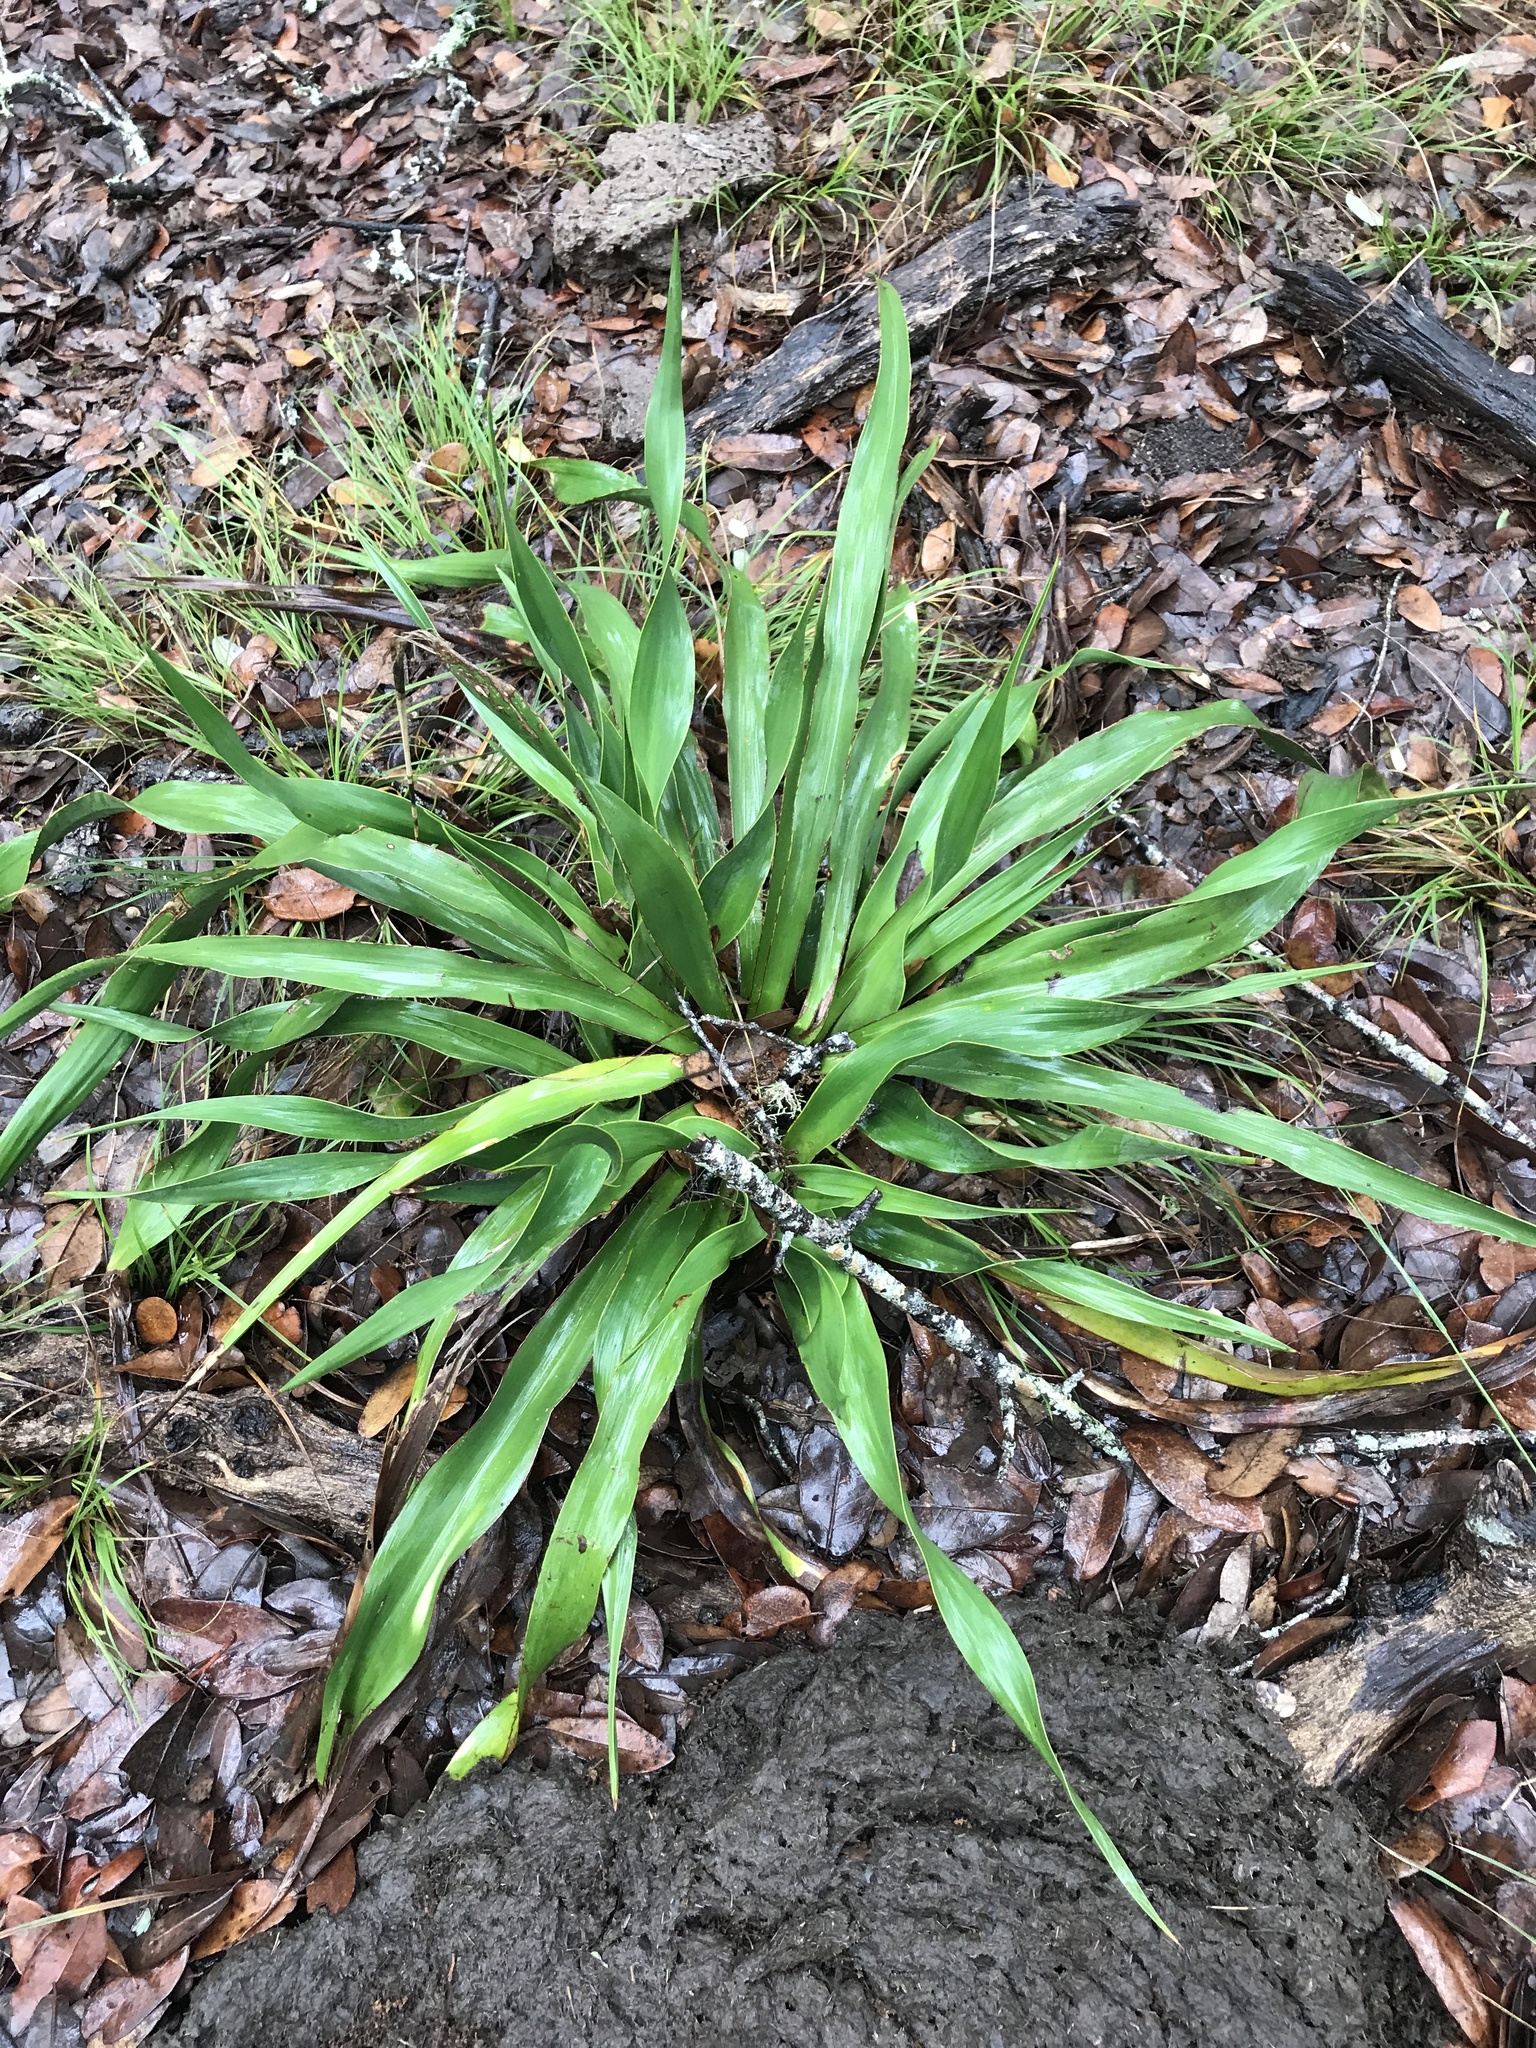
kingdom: Plantae
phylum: Tracheophyta
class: Liliopsida
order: Asparagales
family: Asparagaceae
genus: Yucca
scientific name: Yucca rupicola
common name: Twisted-leaf spanish-dagger
